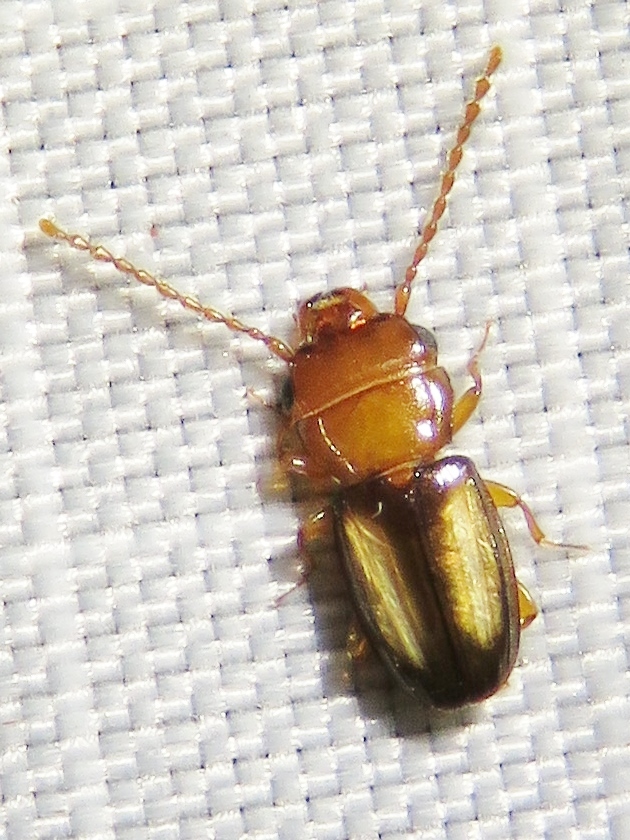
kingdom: Animalia
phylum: Arthropoda
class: Insecta
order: Coleoptera
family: Laemophloeidae
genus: Laemophloeus
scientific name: Laemophloeus terminalis
